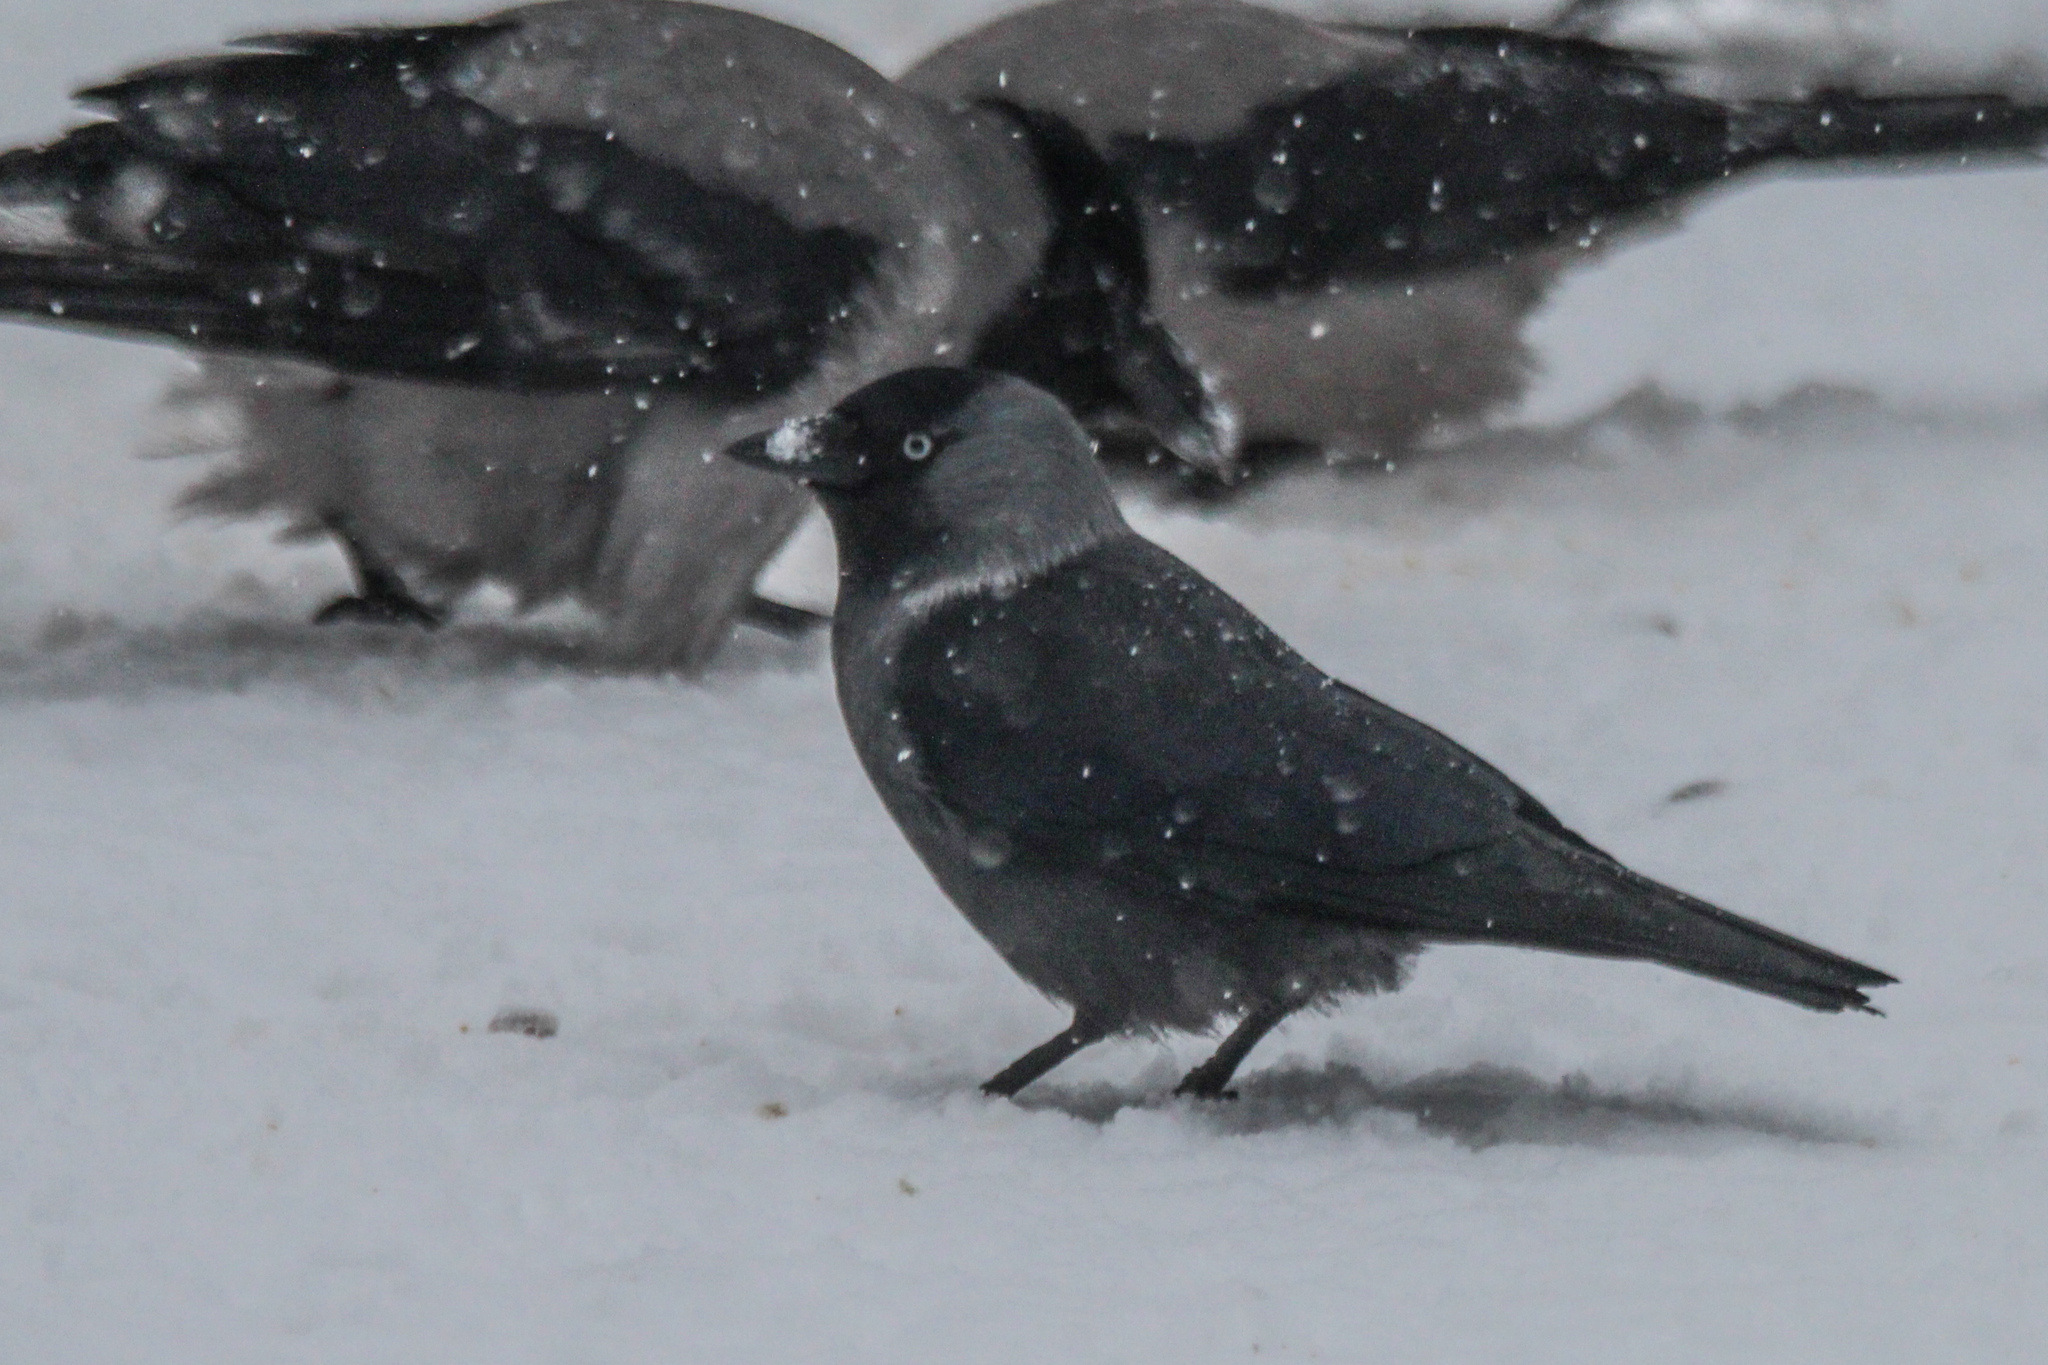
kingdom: Animalia
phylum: Chordata
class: Aves
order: Passeriformes
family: Corvidae
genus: Coloeus
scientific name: Coloeus monedula
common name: Western jackdaw
